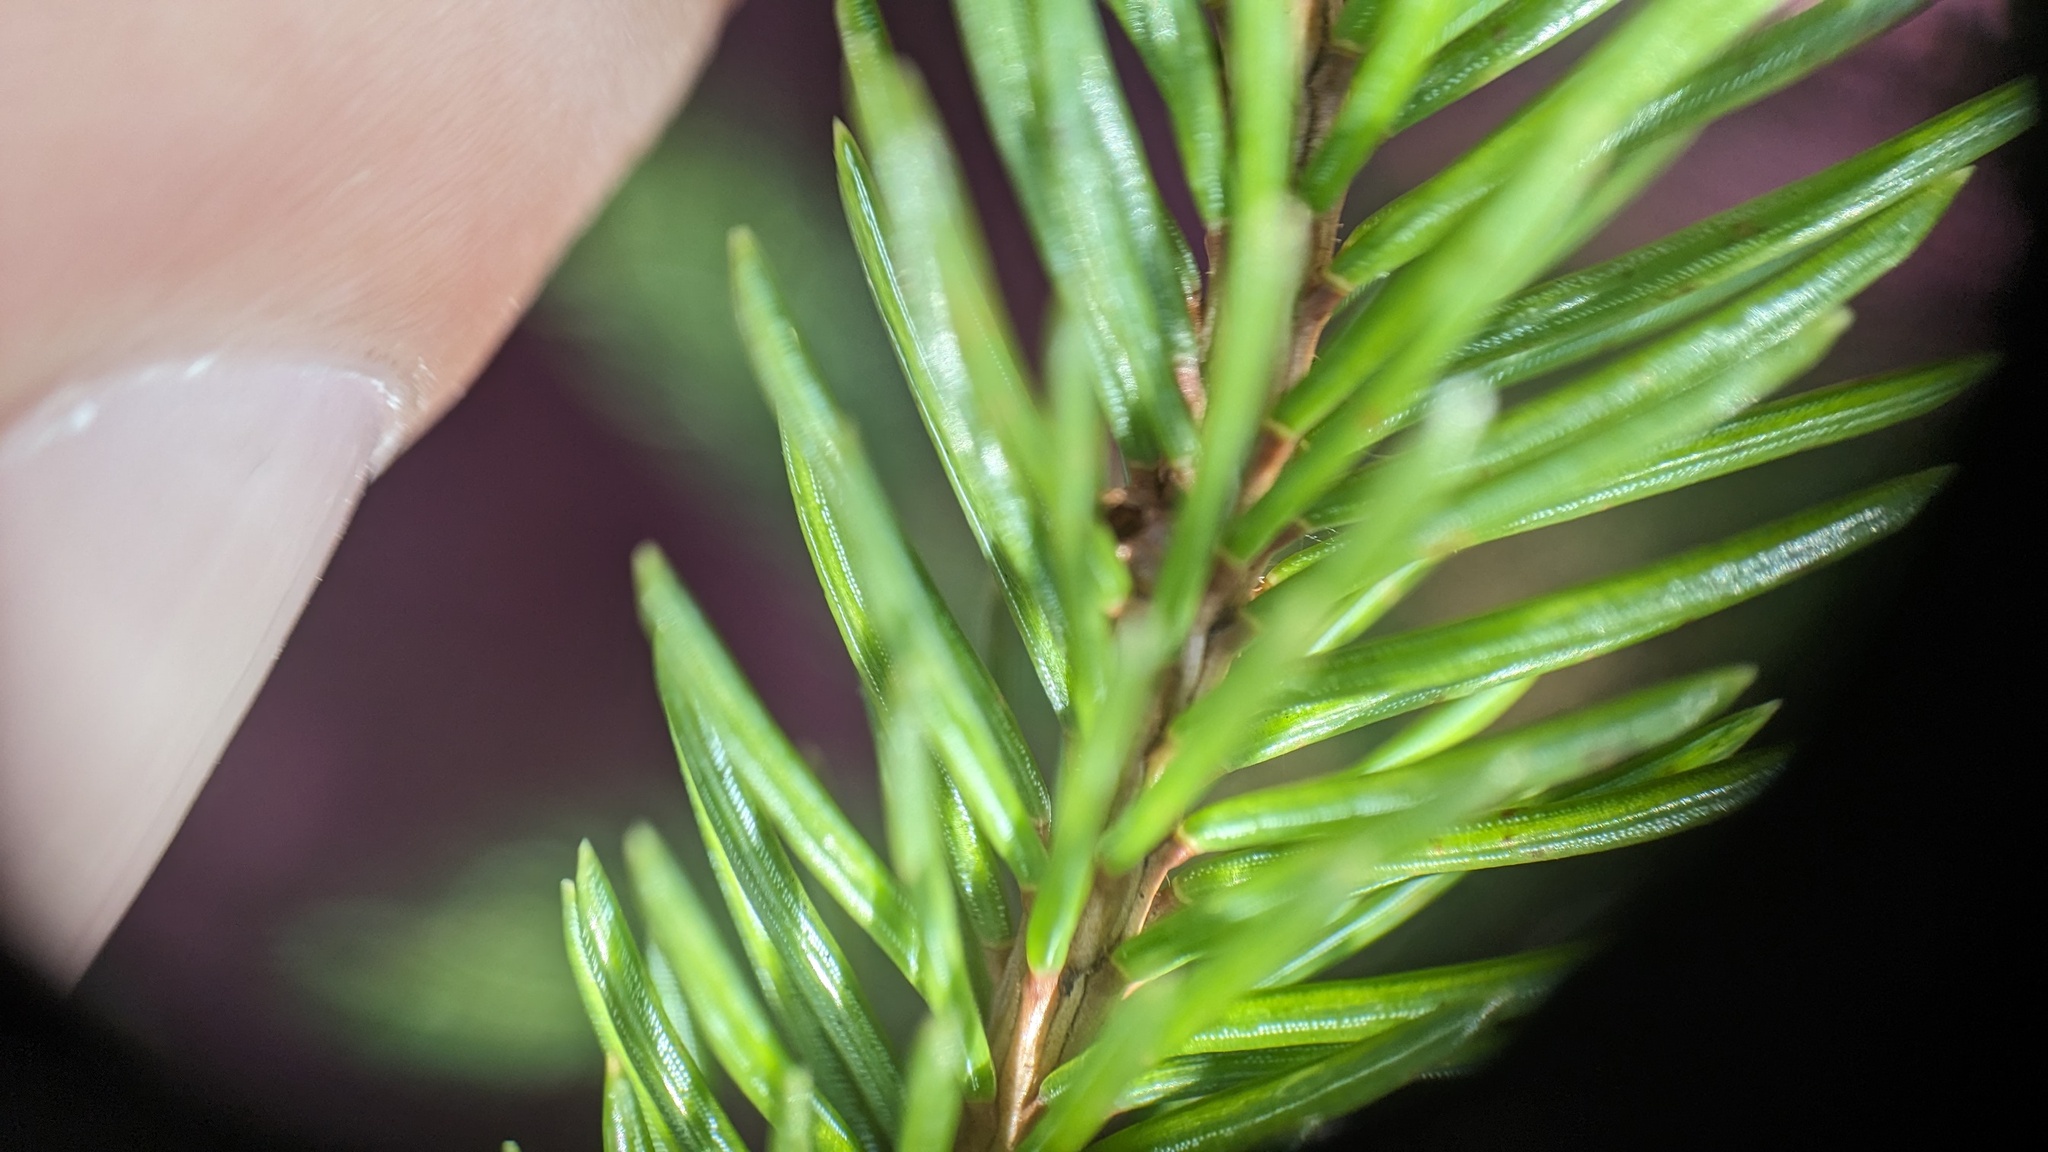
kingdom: Plantae
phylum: Tracheophyta
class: Pinopsida
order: Pinales
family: Pinaceae
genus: Picea
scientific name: Picea glauca
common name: White spruce
